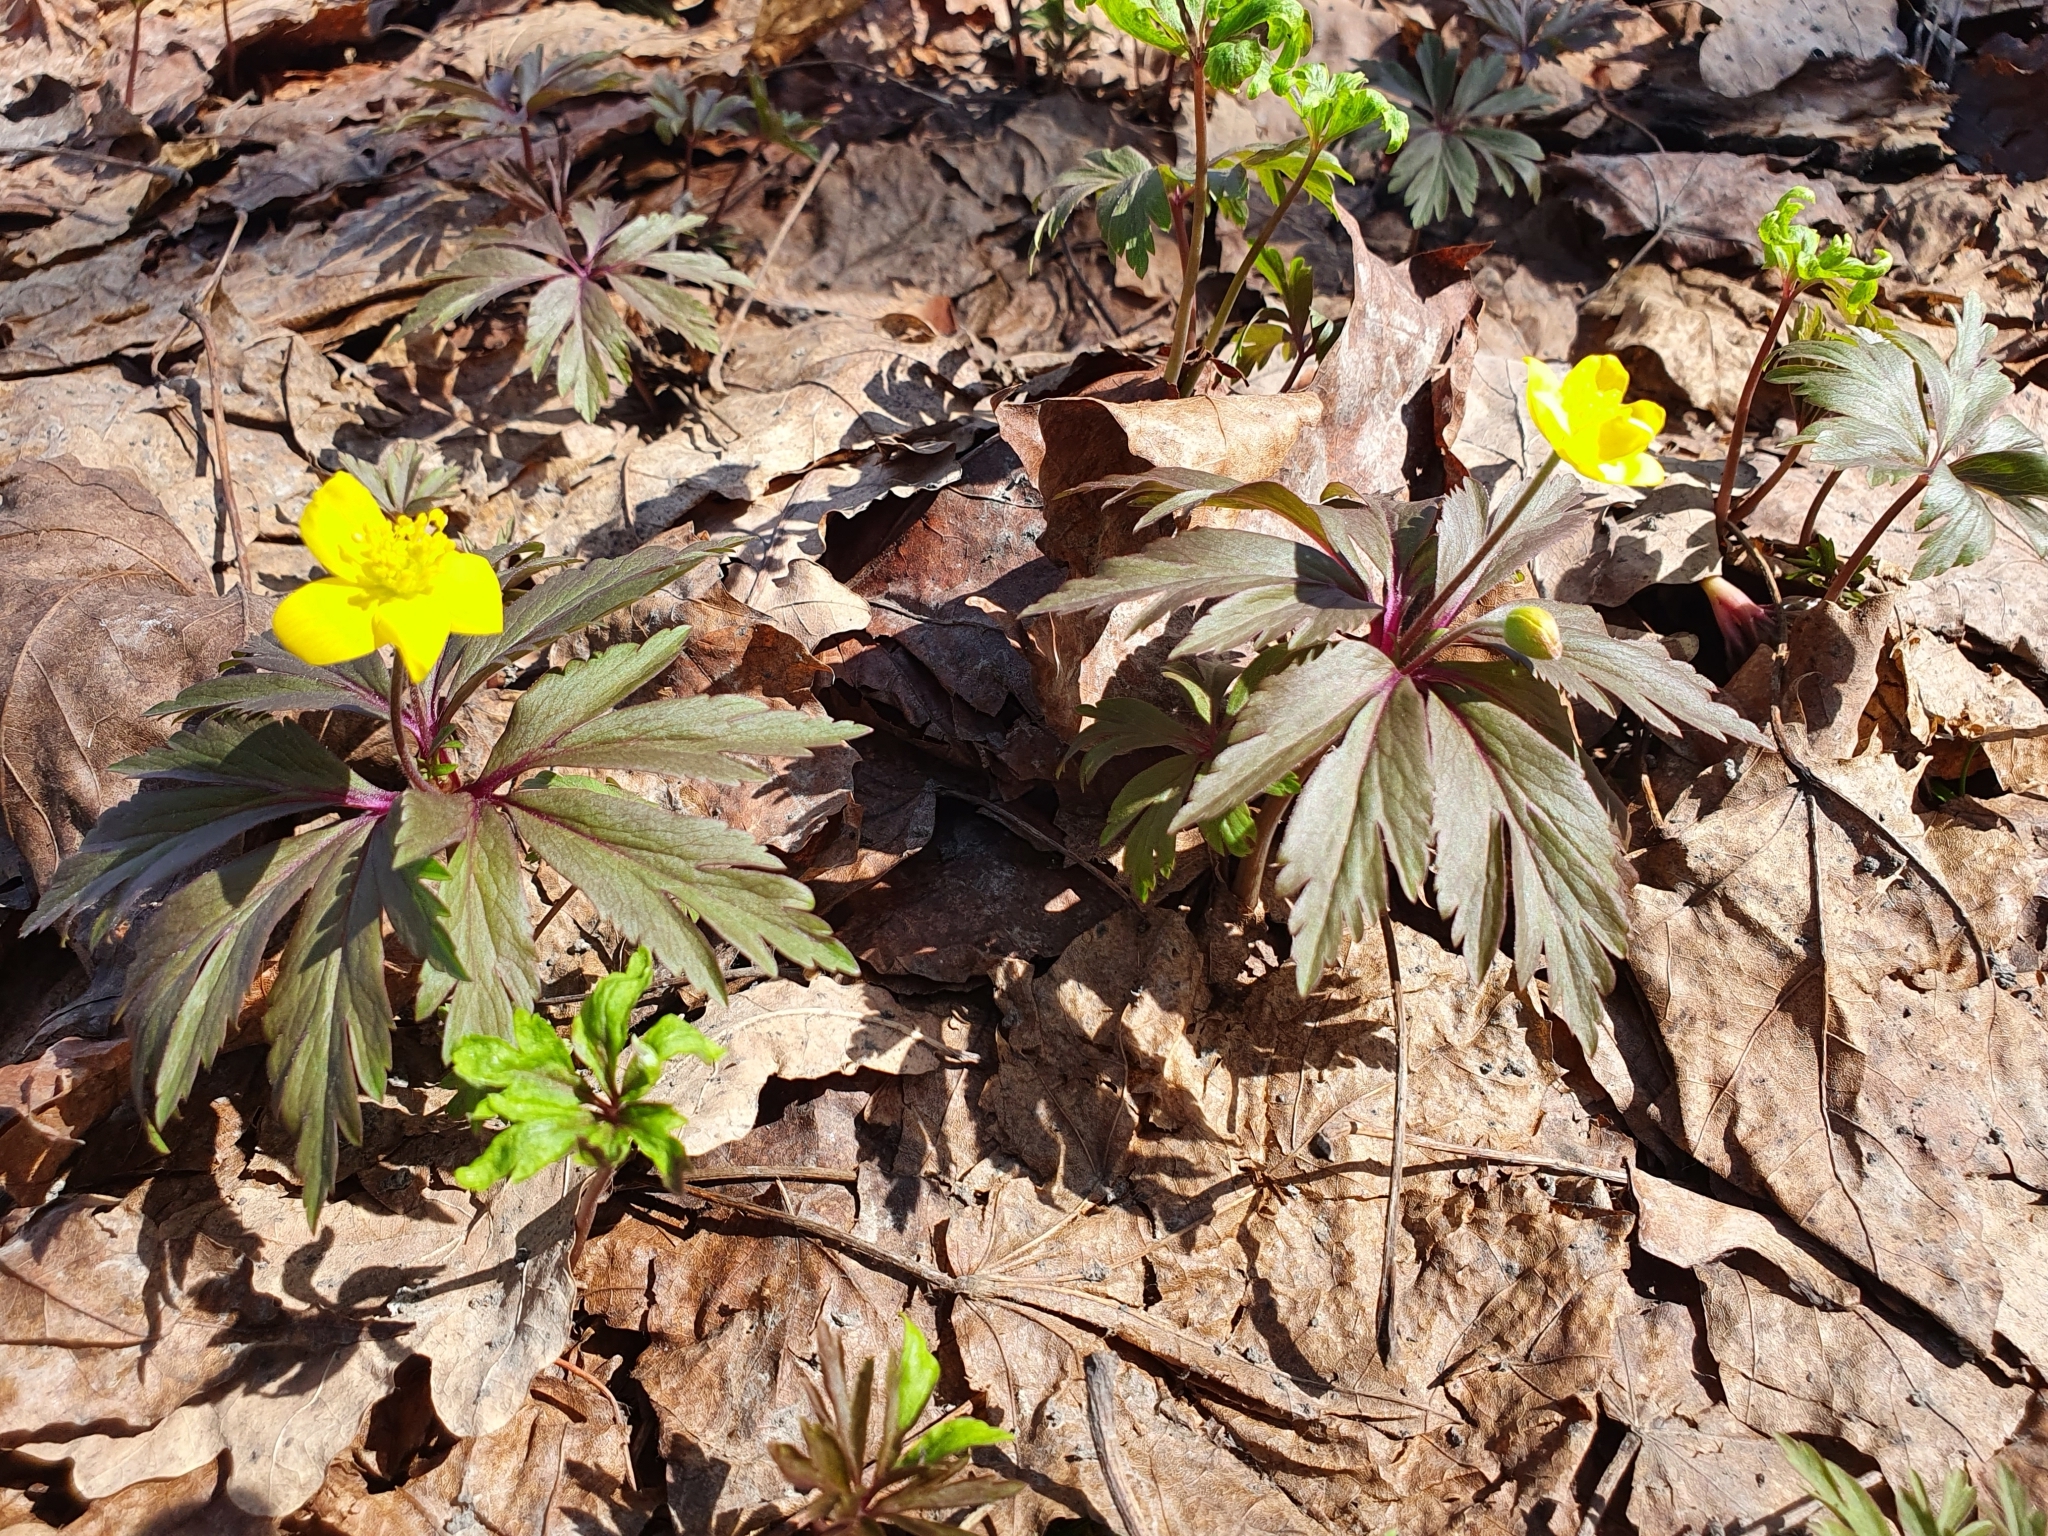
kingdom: Plantae
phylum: Tracheophyta
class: Magnoliopsida
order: Ranunculales
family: Ranunculaceae
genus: Anemone
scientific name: Anemone ranunculoides
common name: Yellow anemone
